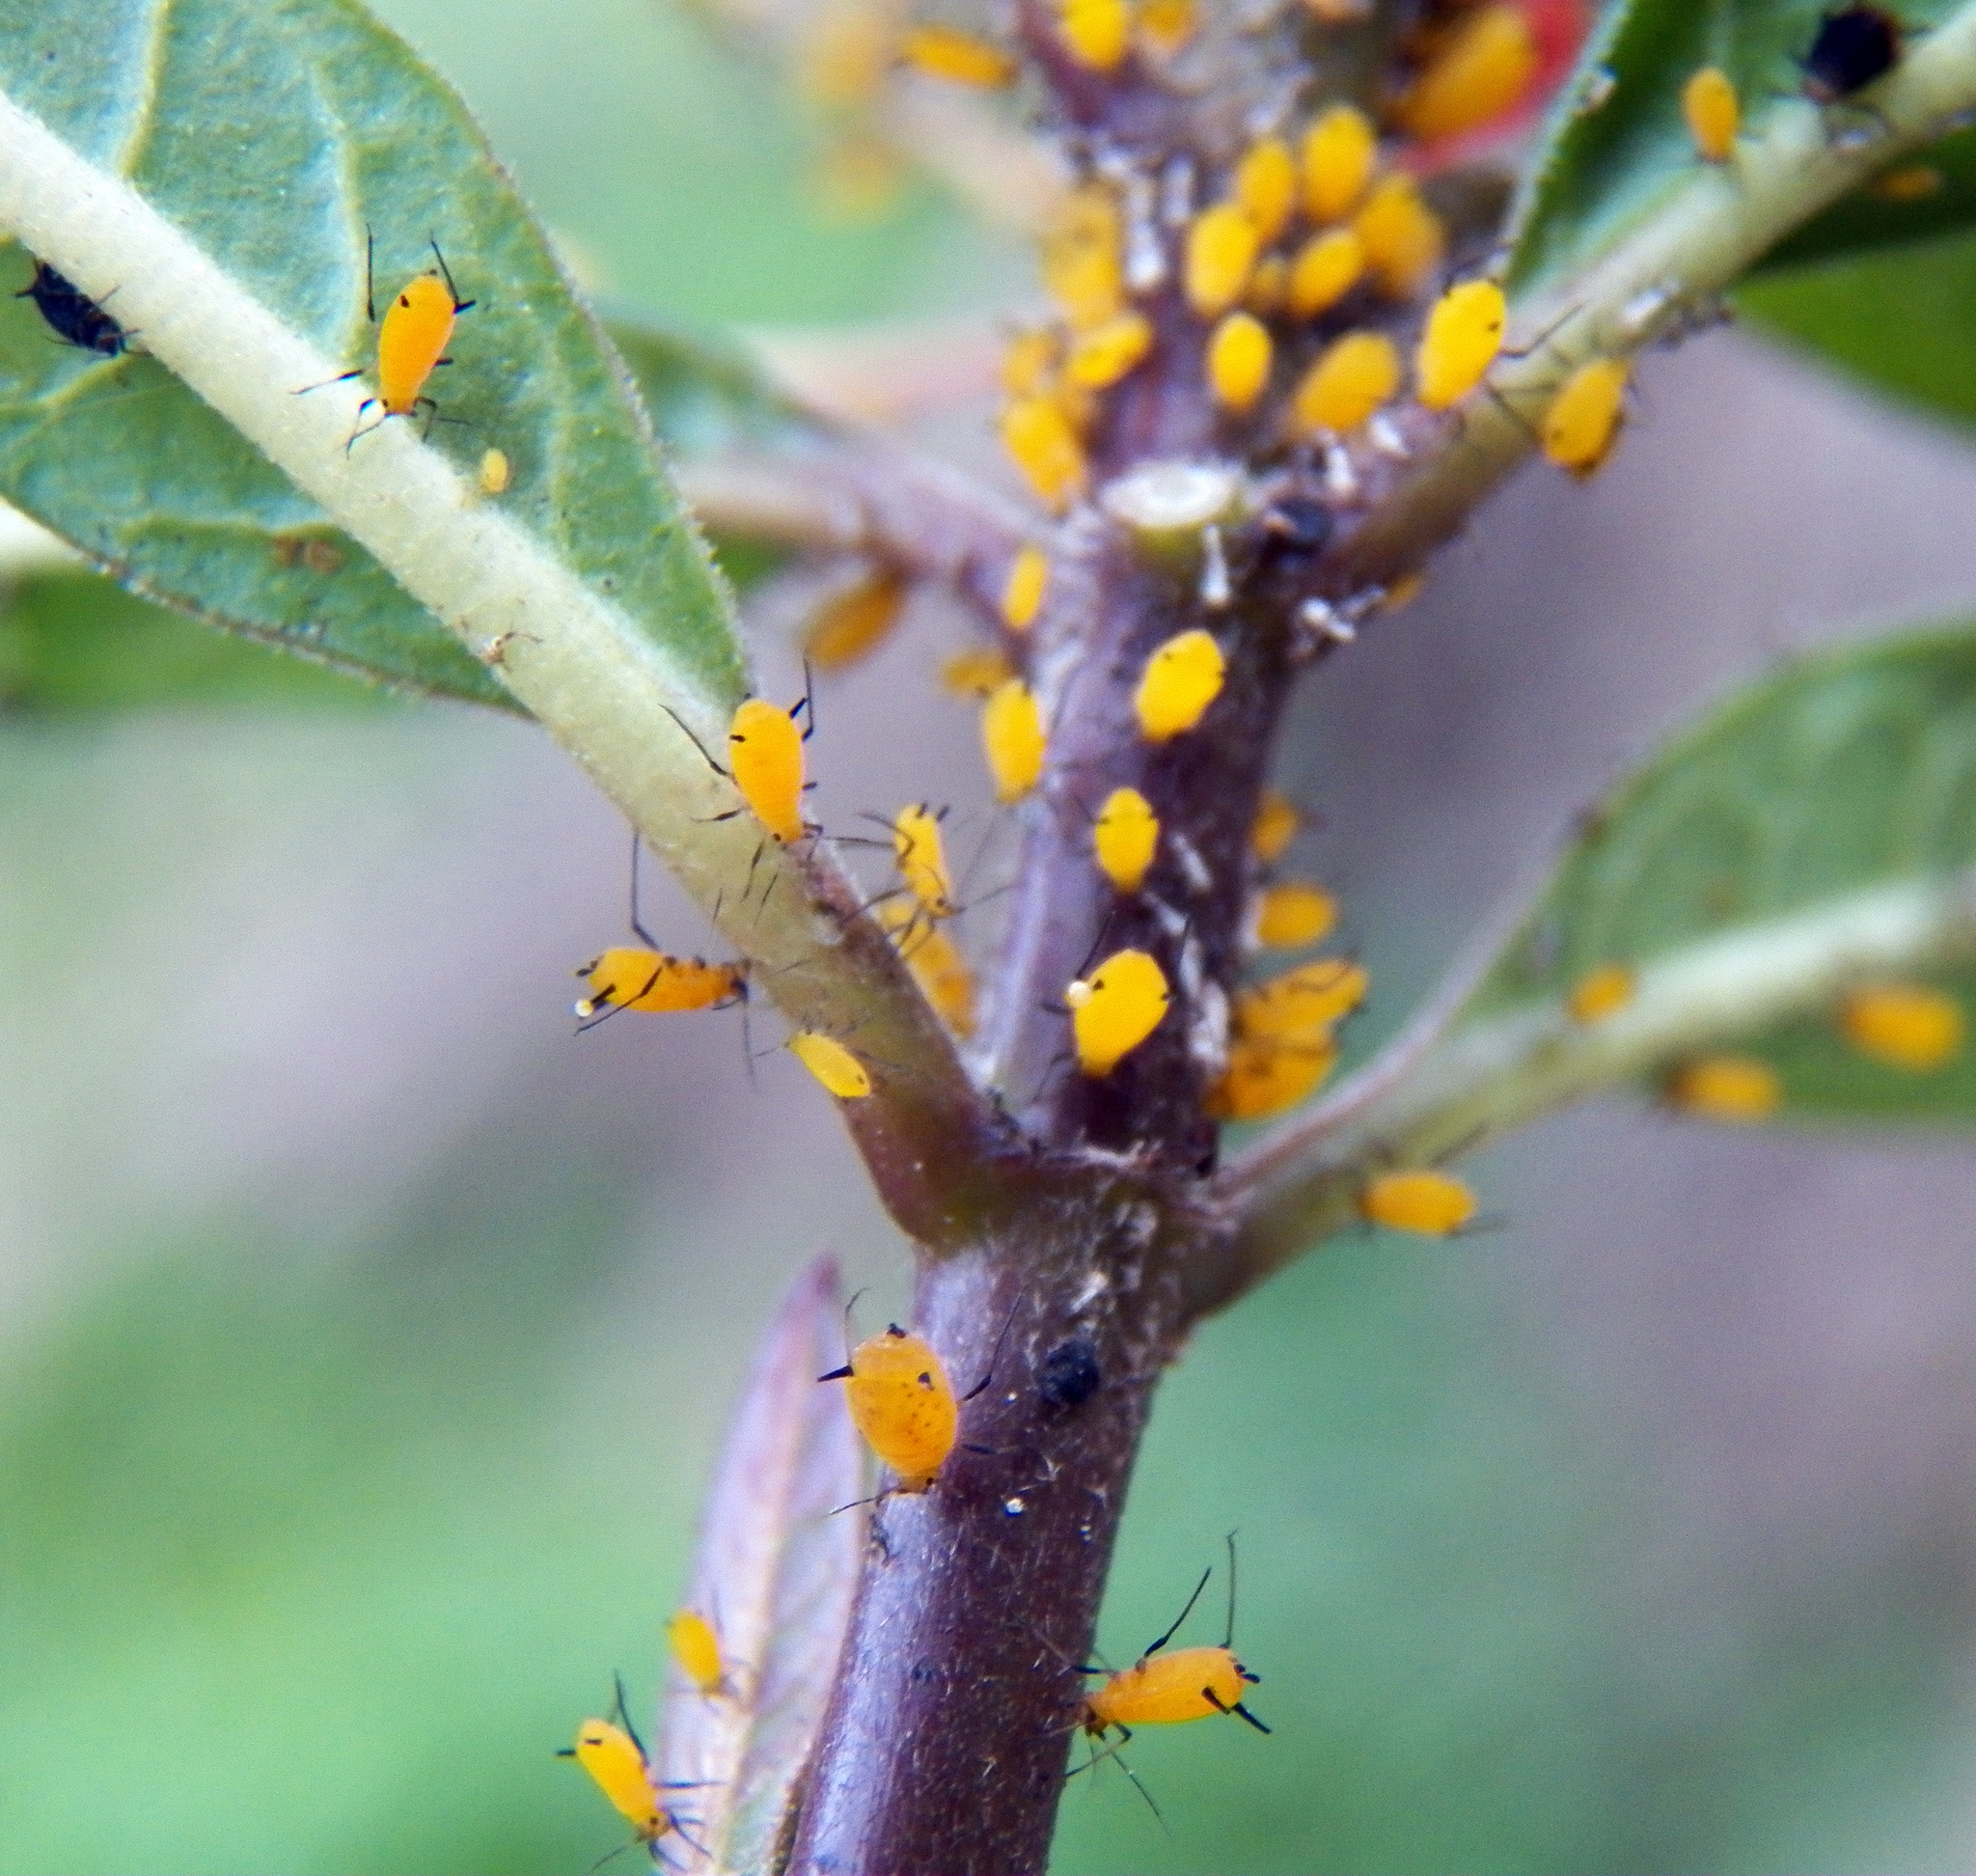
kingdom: Animalia
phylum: Arthropoda
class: Insecta
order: Hemiptera
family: Aphididae
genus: Aphis
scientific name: Aphis nerii
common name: Oleander aphid
